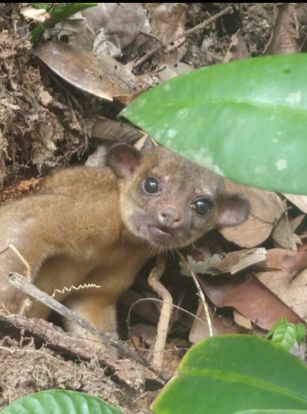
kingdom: Animalia
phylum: Chordata
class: Mammalia
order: Carnivora
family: Procyonidae
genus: Potos
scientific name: Potos flavus
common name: Kinkajou
